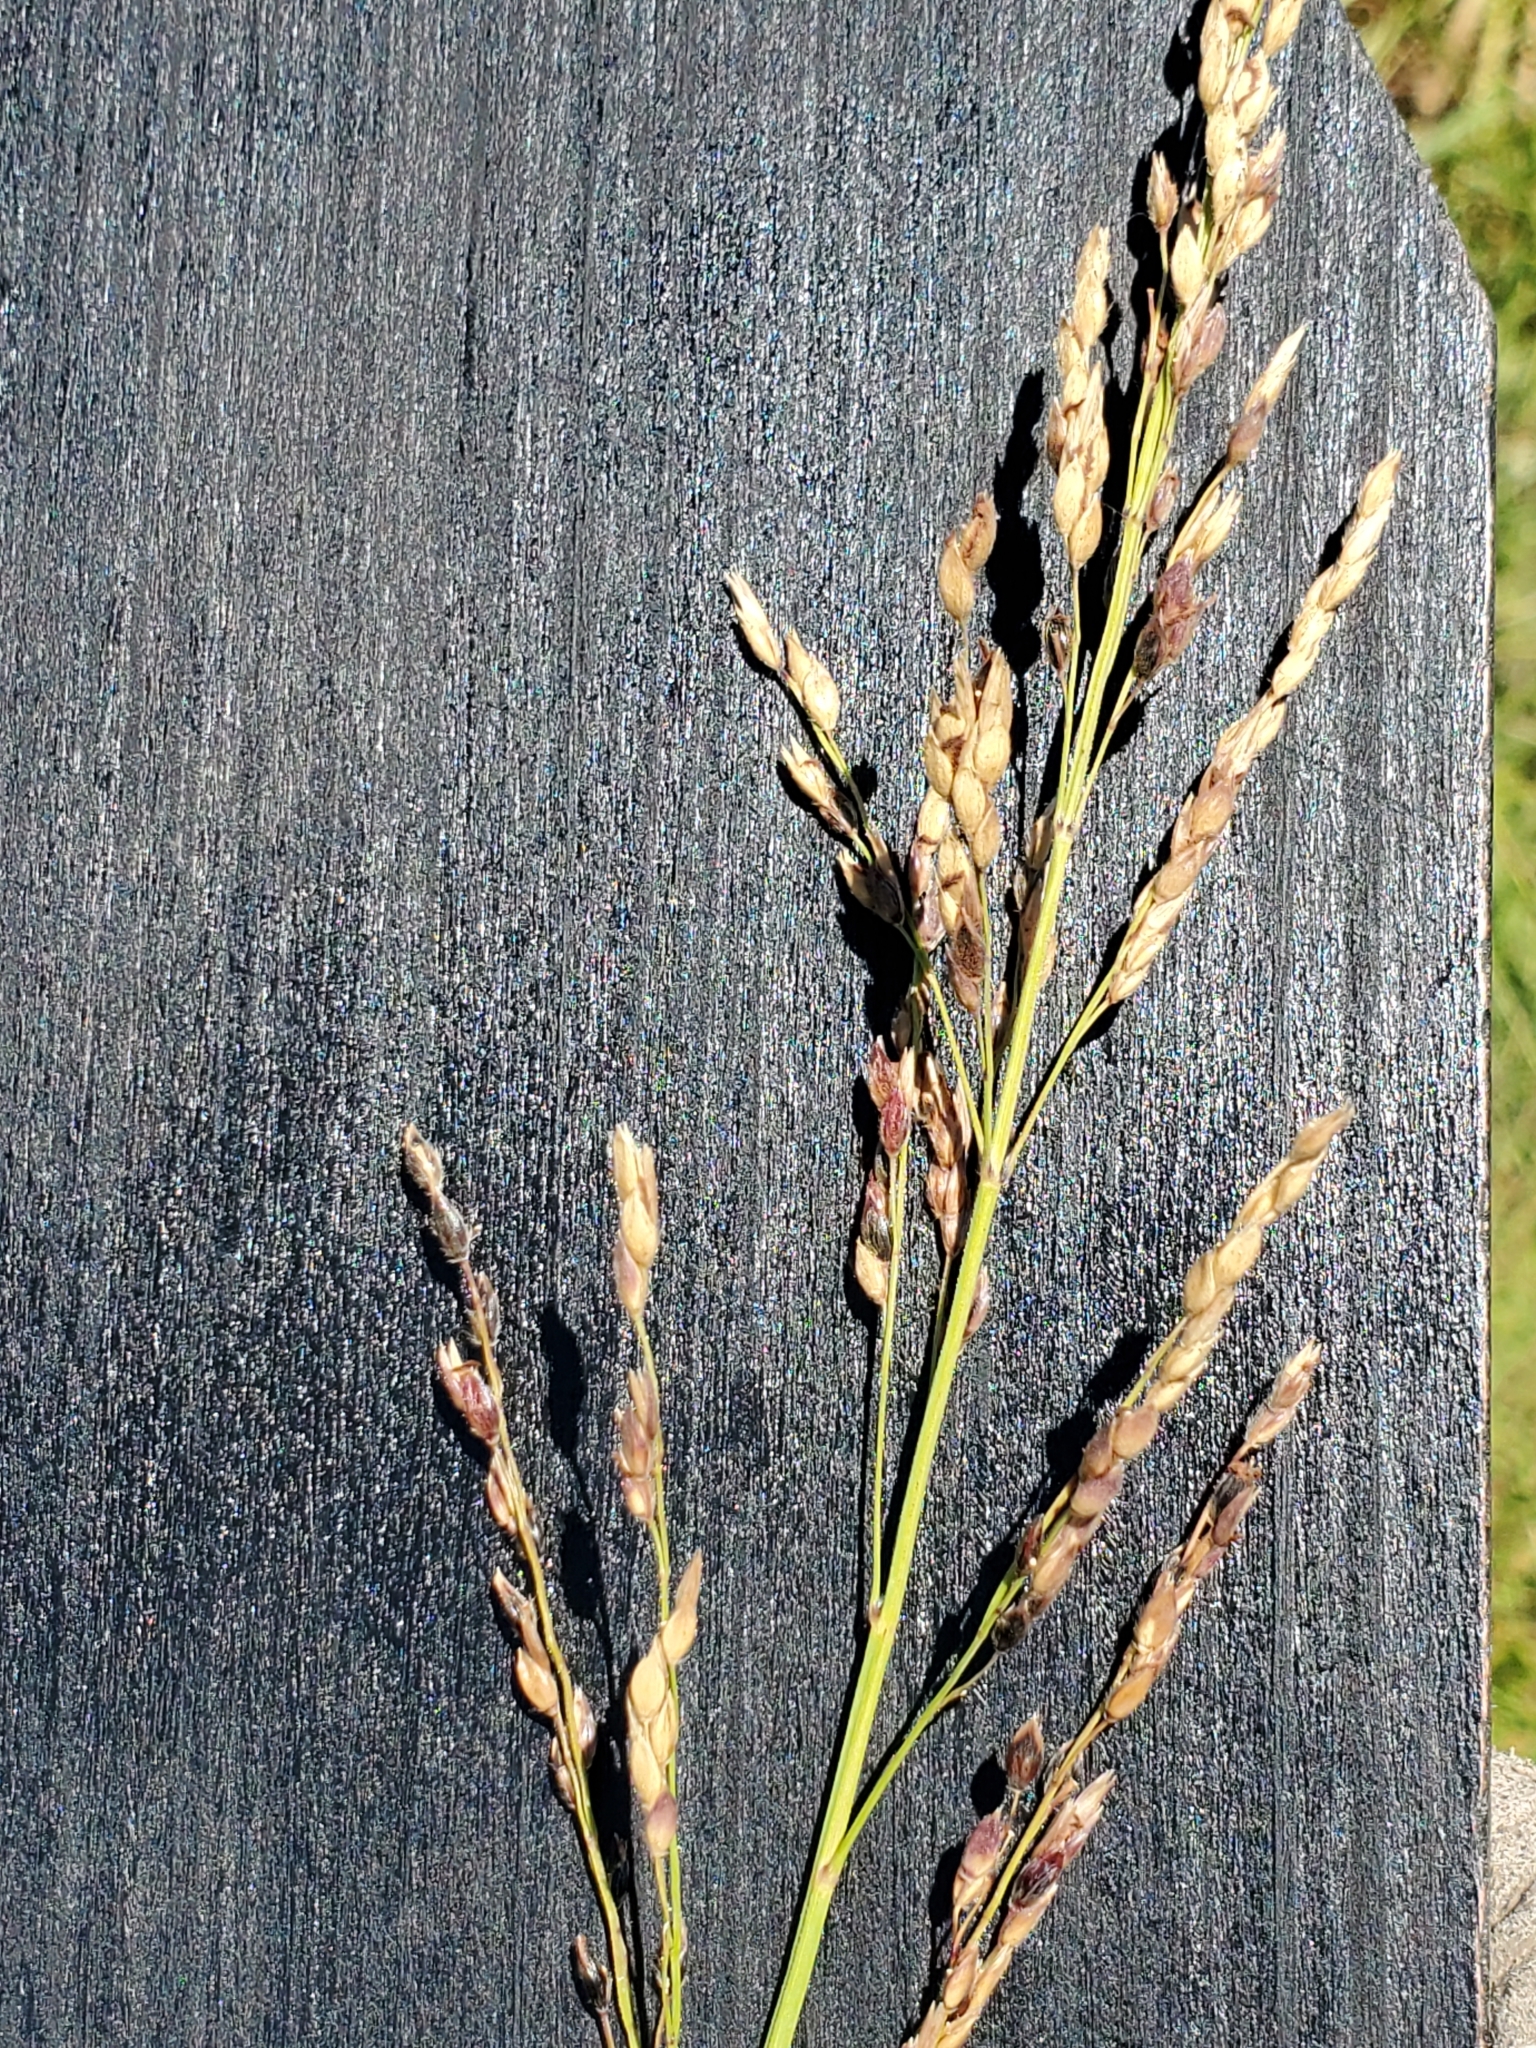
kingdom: Plantae
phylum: Tracheophyta
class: Liliopsida
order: Poales
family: Poaceae
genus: Sorghum
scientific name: Sorghum halepense
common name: Johnson-grass
